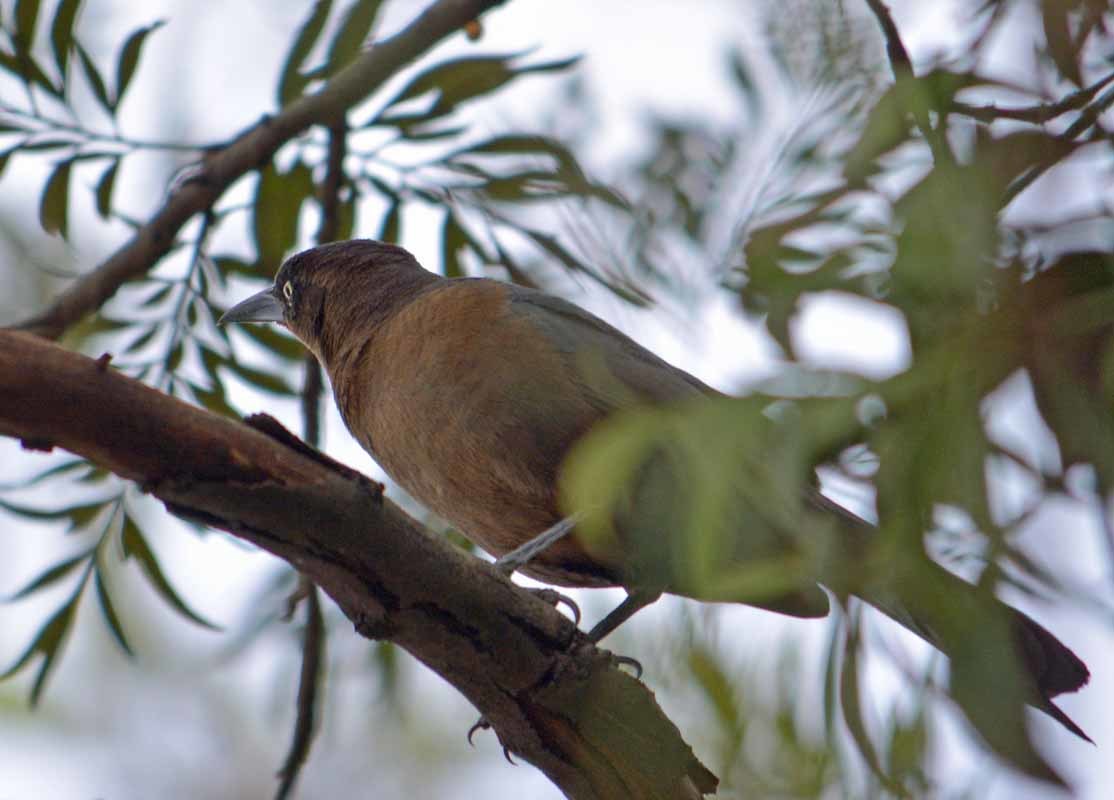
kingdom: Animalia
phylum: Chordata
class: Aves
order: Passeriformes
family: Icteridae
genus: Quiscalus
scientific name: Quiscalus mexicanus
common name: Great-tailed grackle
